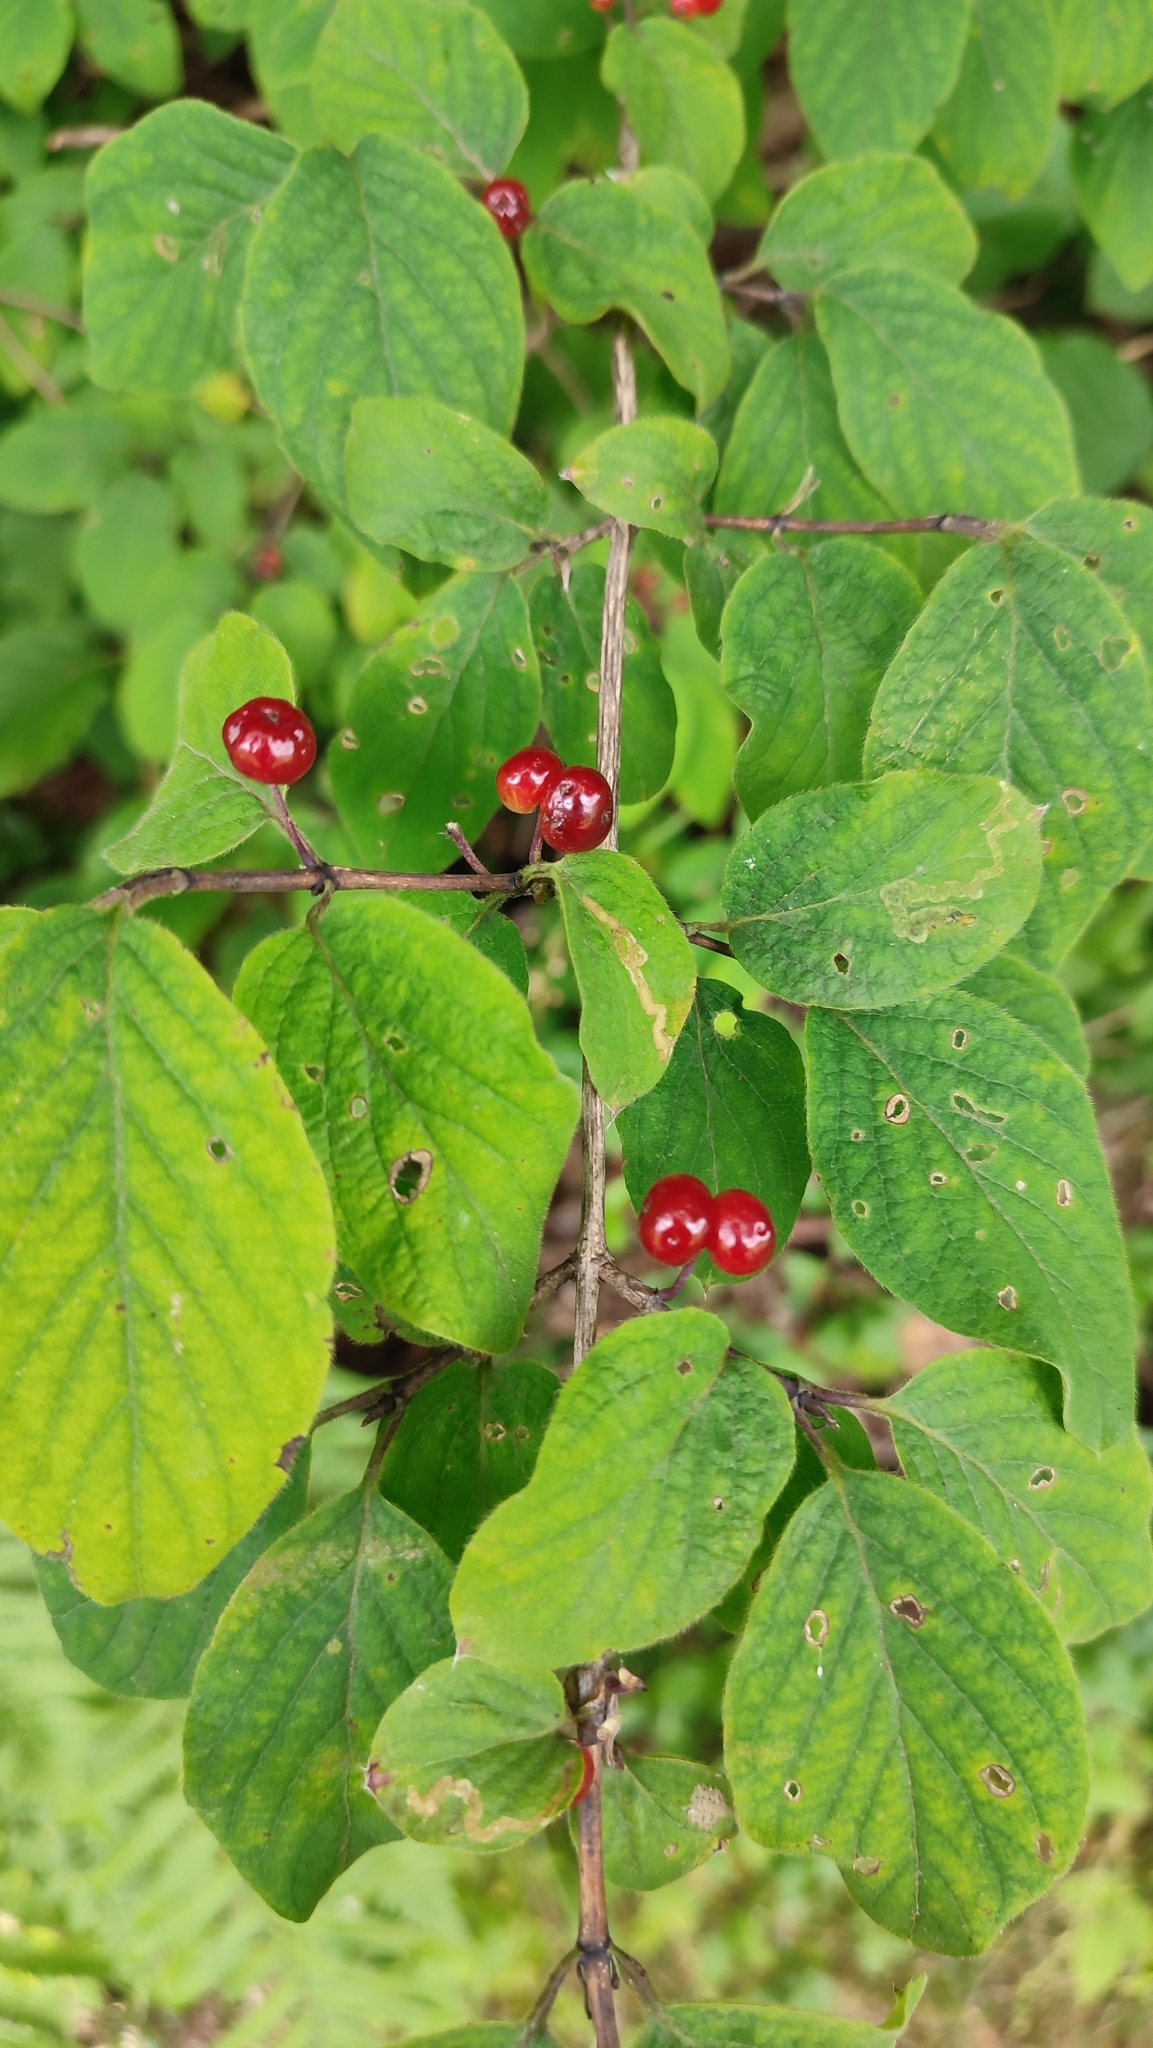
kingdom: Plantae
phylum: Tracheophyta
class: Magnoliopsida
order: Dipsacales
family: Caprifoliaceae
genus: Lonicera
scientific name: Lonicera xylosteum
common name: Fly honeysuckle
